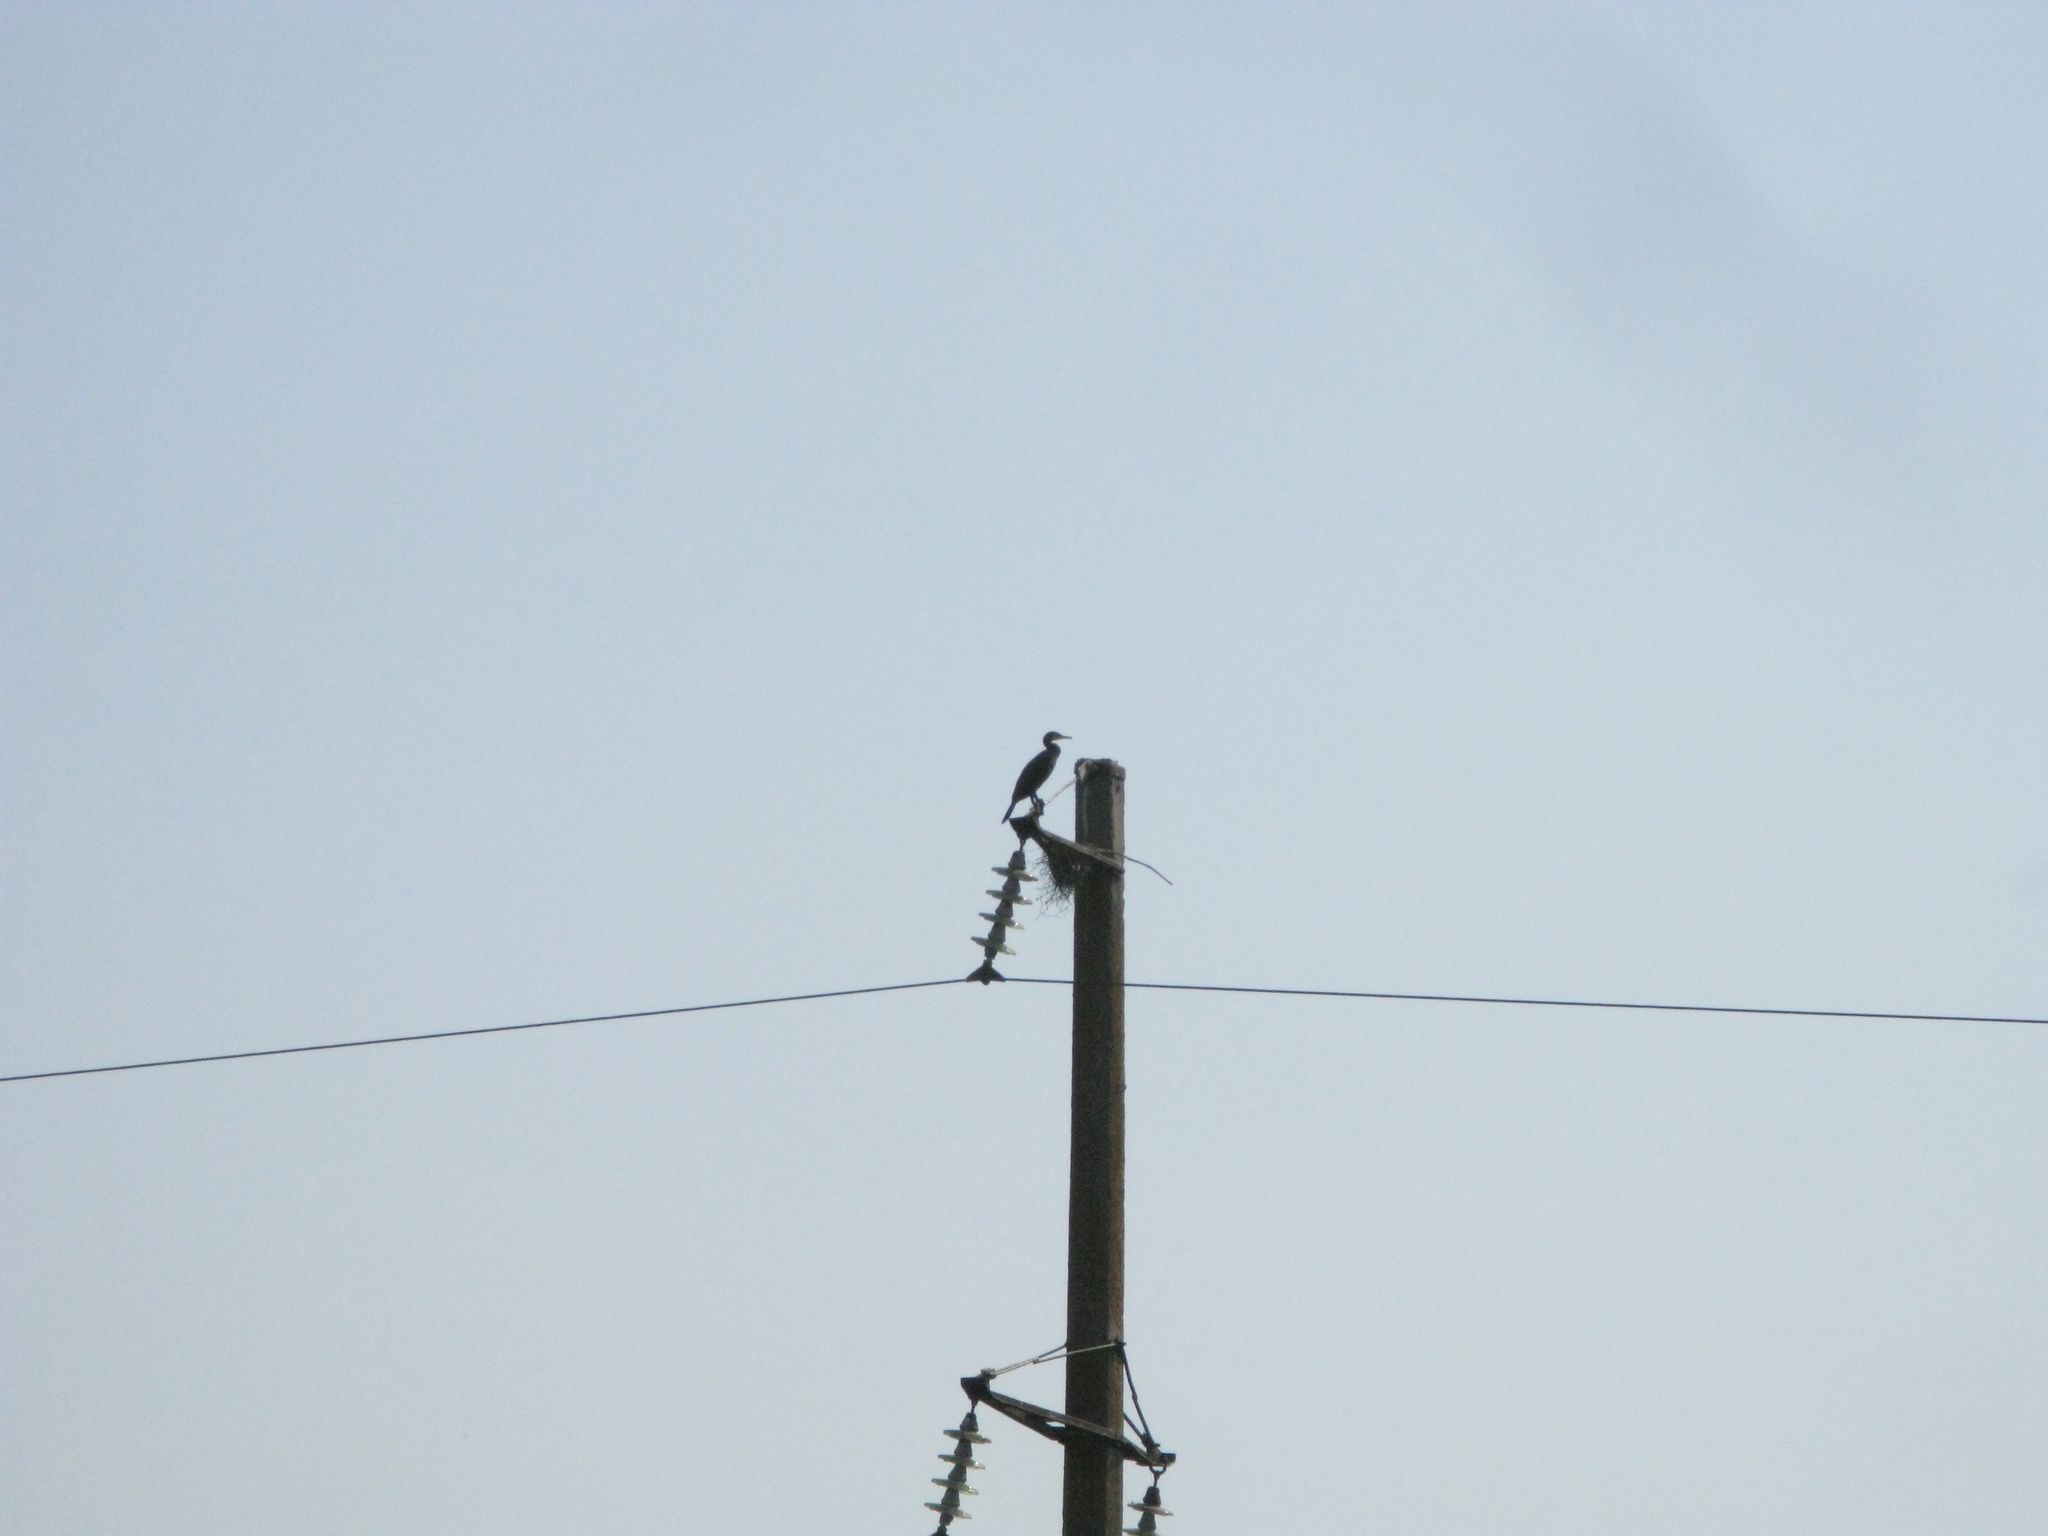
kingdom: Animalia
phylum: Chordata
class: Aves
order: Suliformes
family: Phalacrocoracidae
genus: Phalacrocorax
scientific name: Phalacrocorax carbo
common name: Great cormorant
